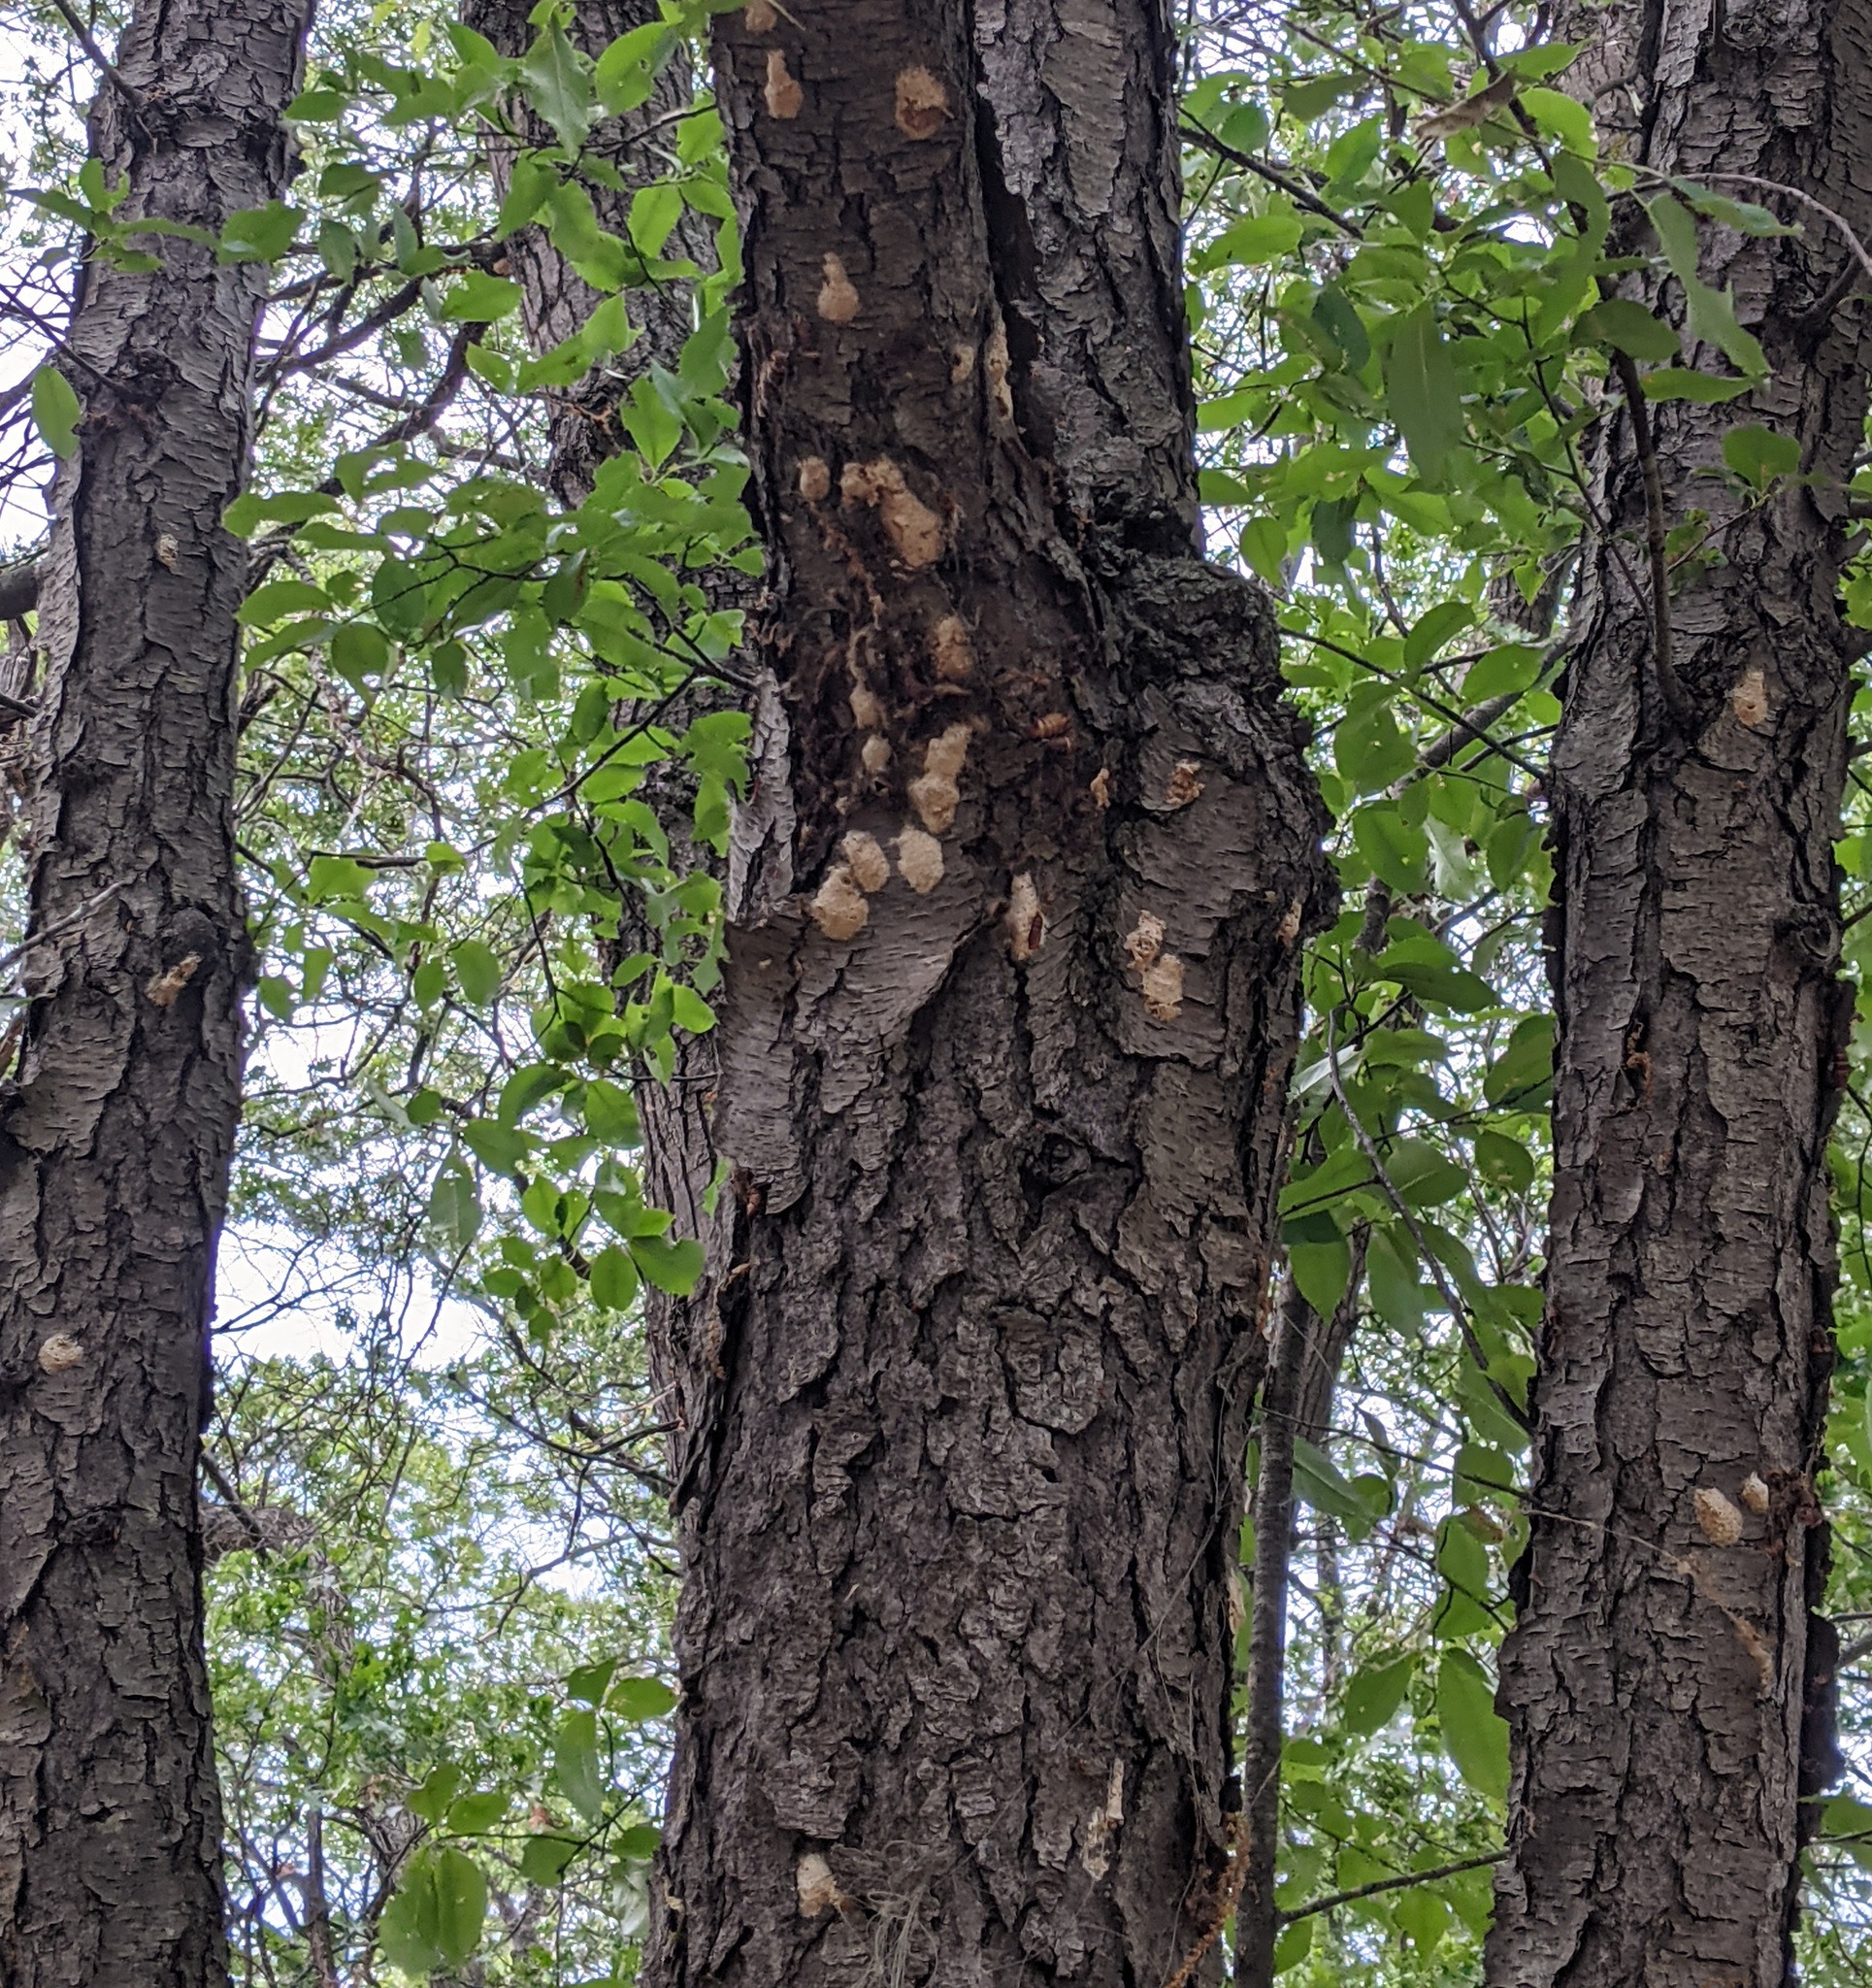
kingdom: Animalia
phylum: Arthropoda
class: Insecta
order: Lepidoptera
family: Erebidae
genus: Lymantria
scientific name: Lymantria dispar
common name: Gypsy moth
